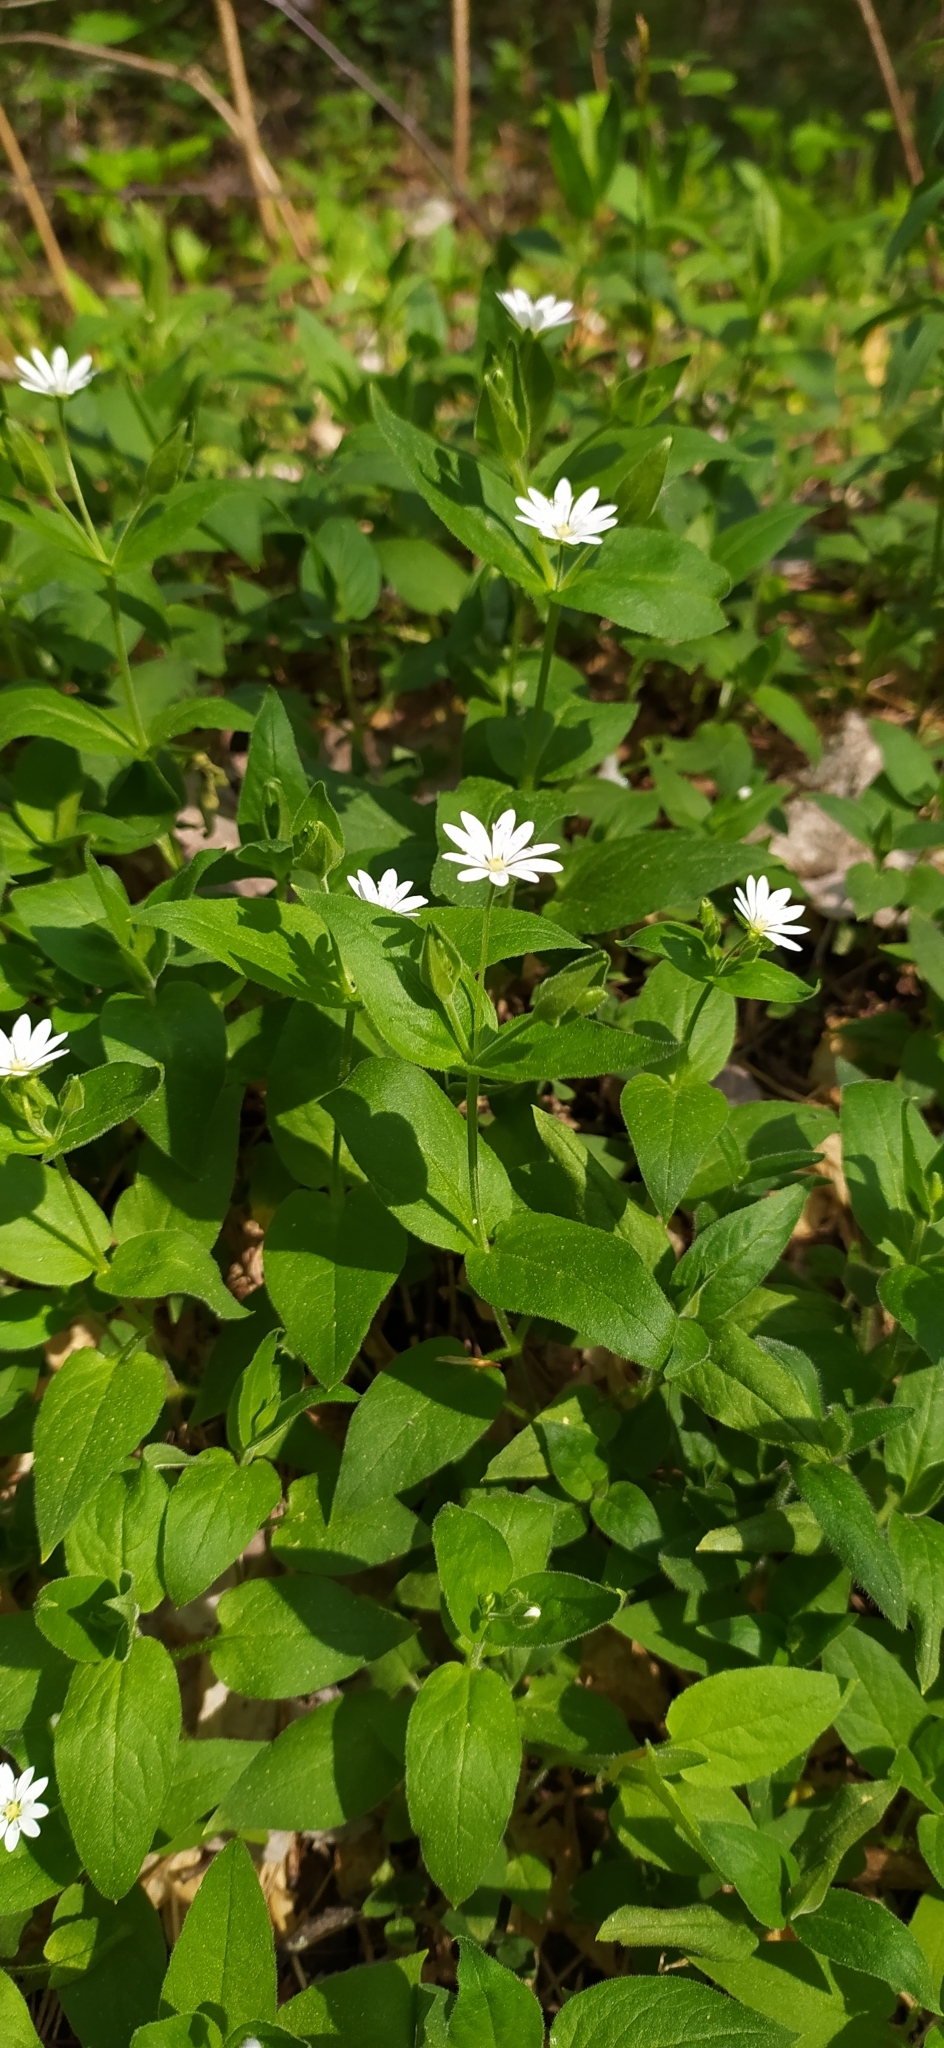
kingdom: Plantae
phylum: Tracheophyta
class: Magnoliopsida
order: Caryophyllales
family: Caryophyllaceae
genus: Stellaria
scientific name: Stellaria bungeana
